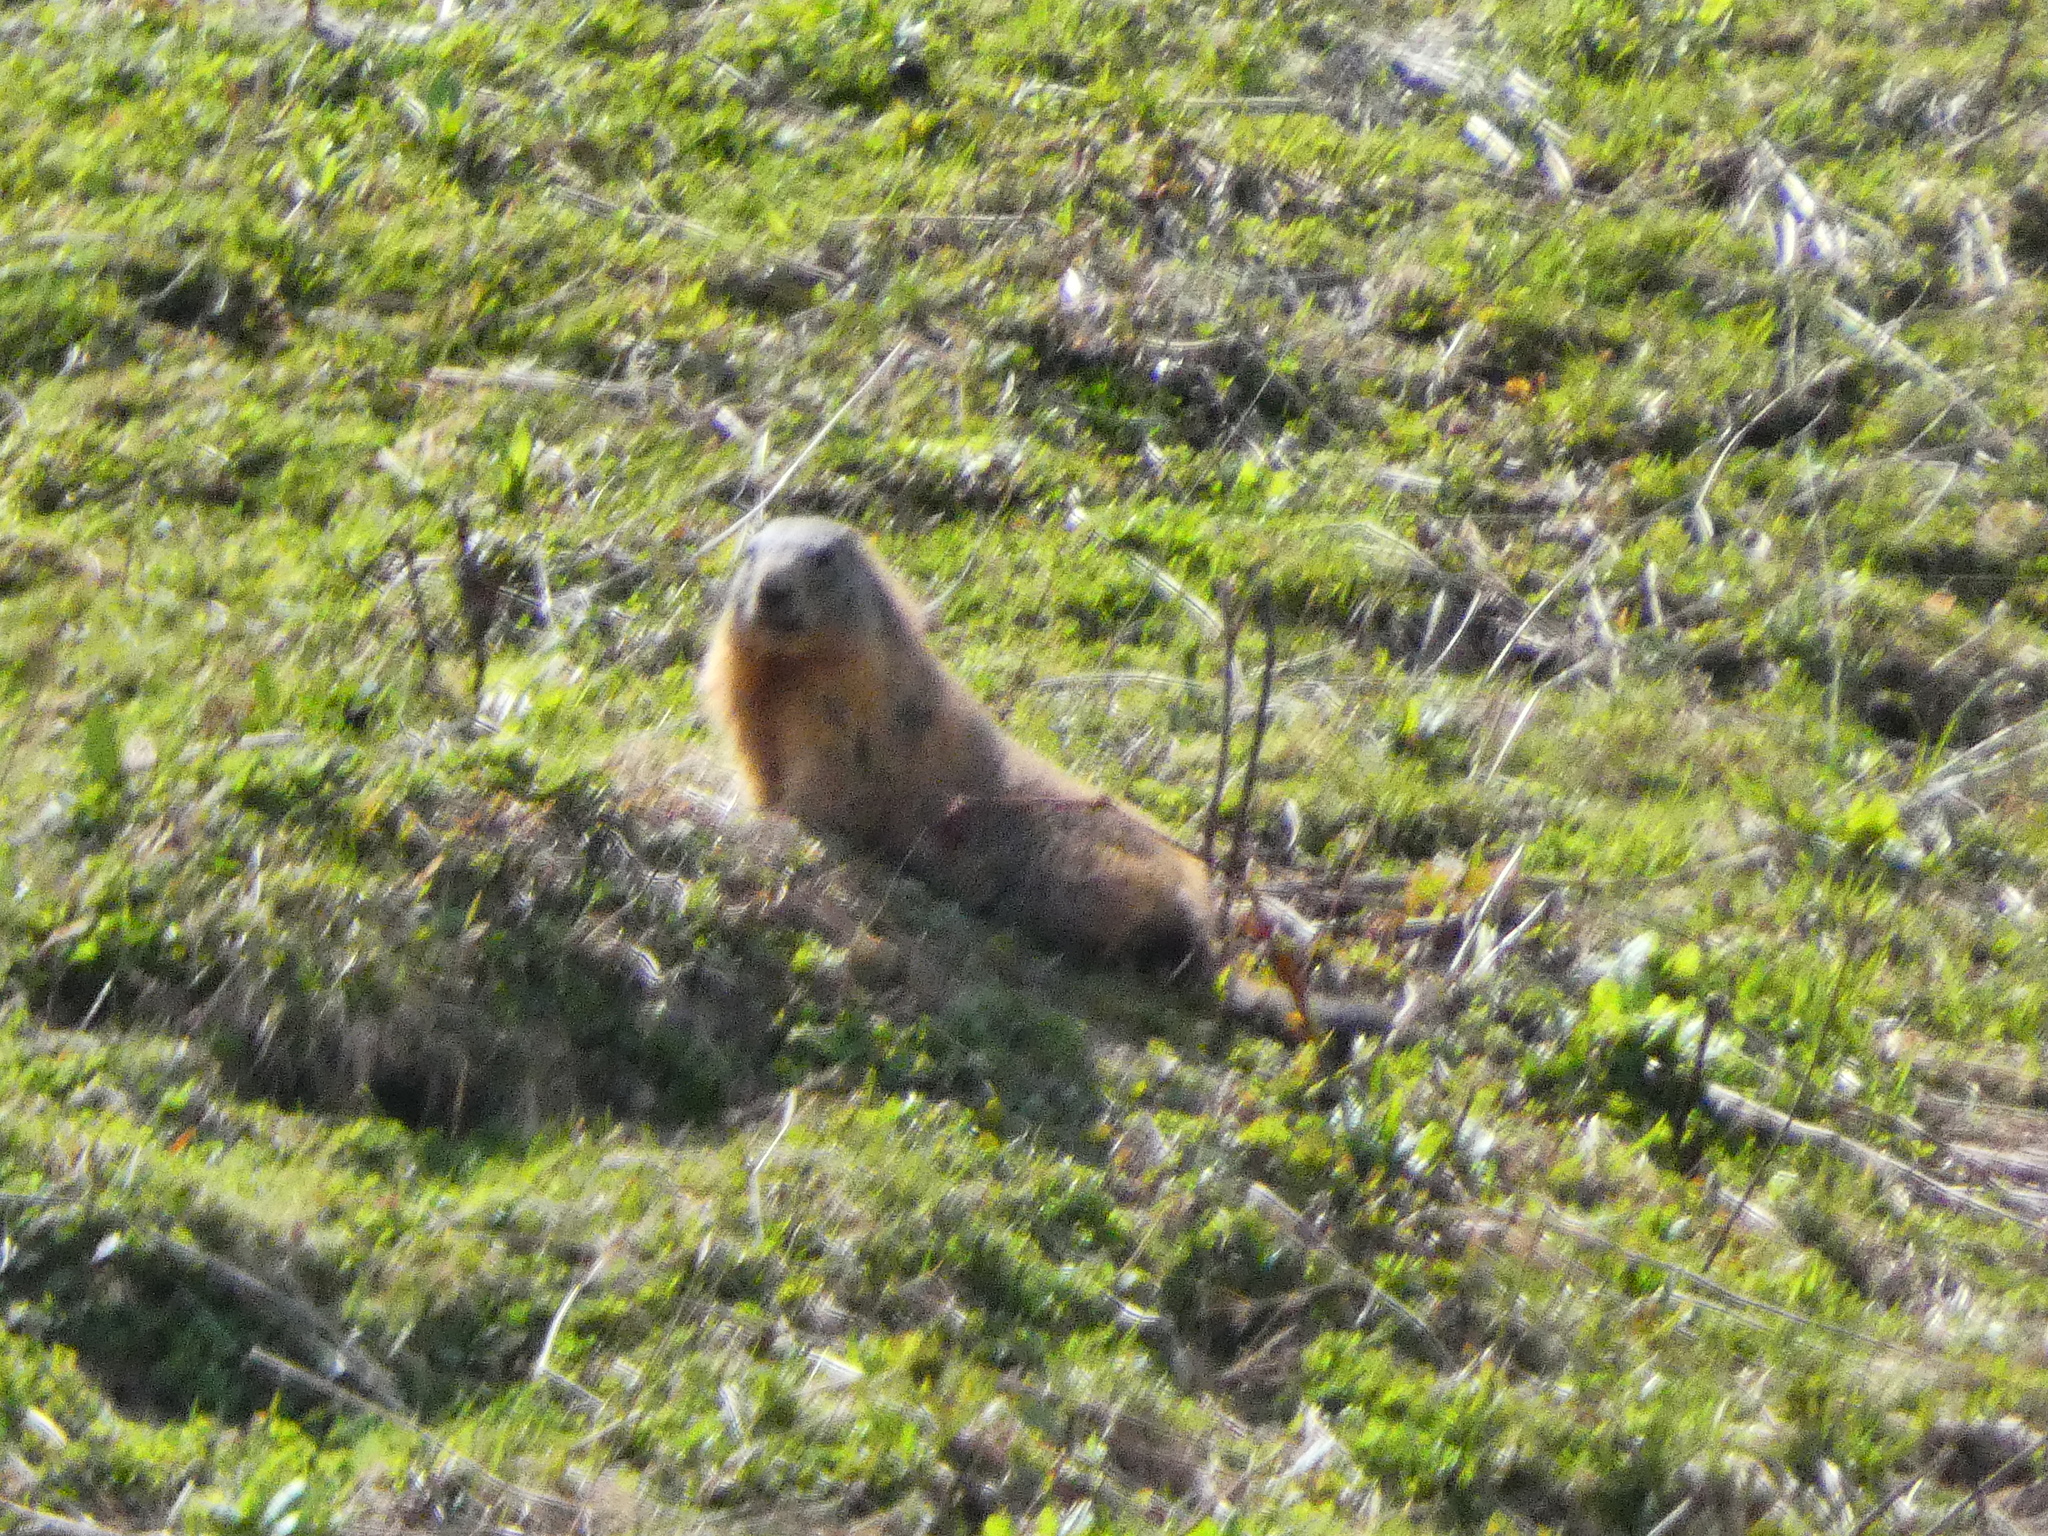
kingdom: Animalia
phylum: Chordata
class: Mammalia
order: Rodentia
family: Sciuridae
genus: Marmota
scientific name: Marmota marmota
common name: Alpine marmot
